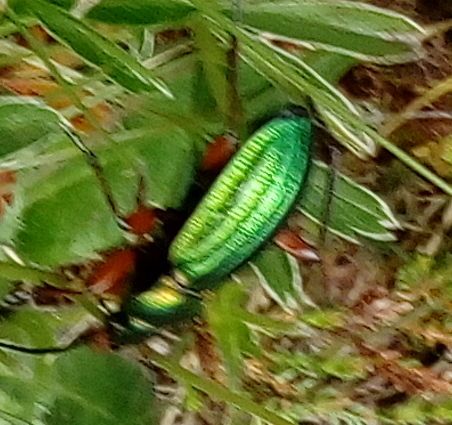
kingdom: Animalia
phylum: Arthropoda
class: Insecta
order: Coleoptera
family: Carabidae
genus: Carabus
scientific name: Carabus auronitens
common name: Carabus auronitens
